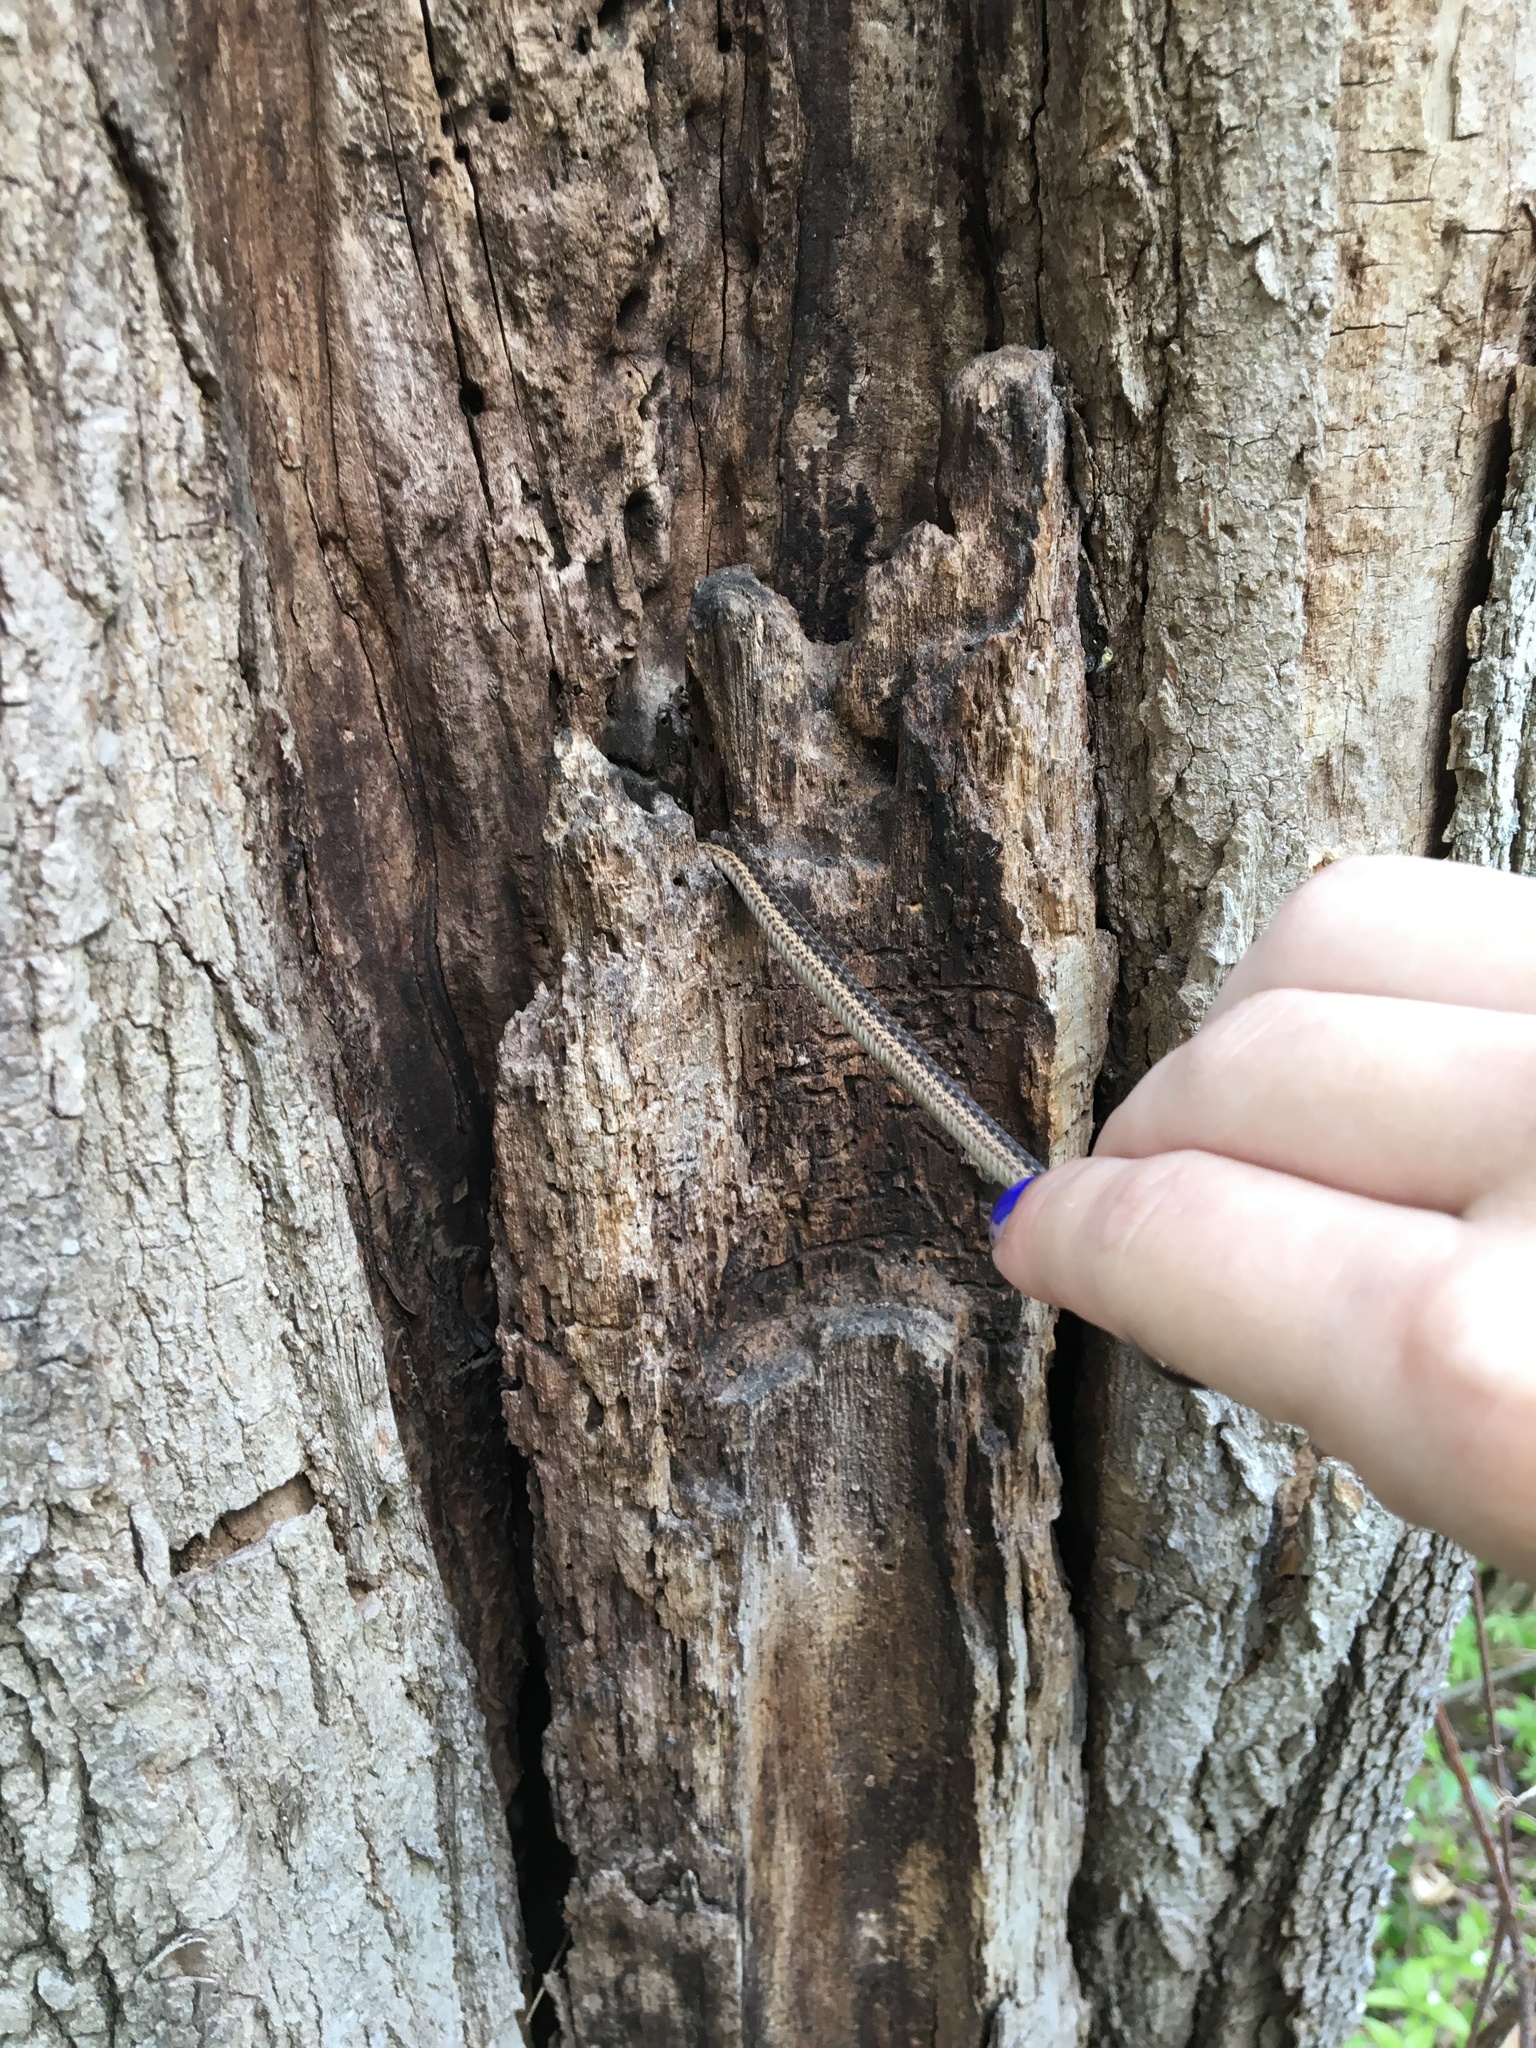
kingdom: Animalia
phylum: Chordata
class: Squamata
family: Colubridae
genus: Thamnophis
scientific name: Thamnophis sirtalis
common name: Common garter snake
